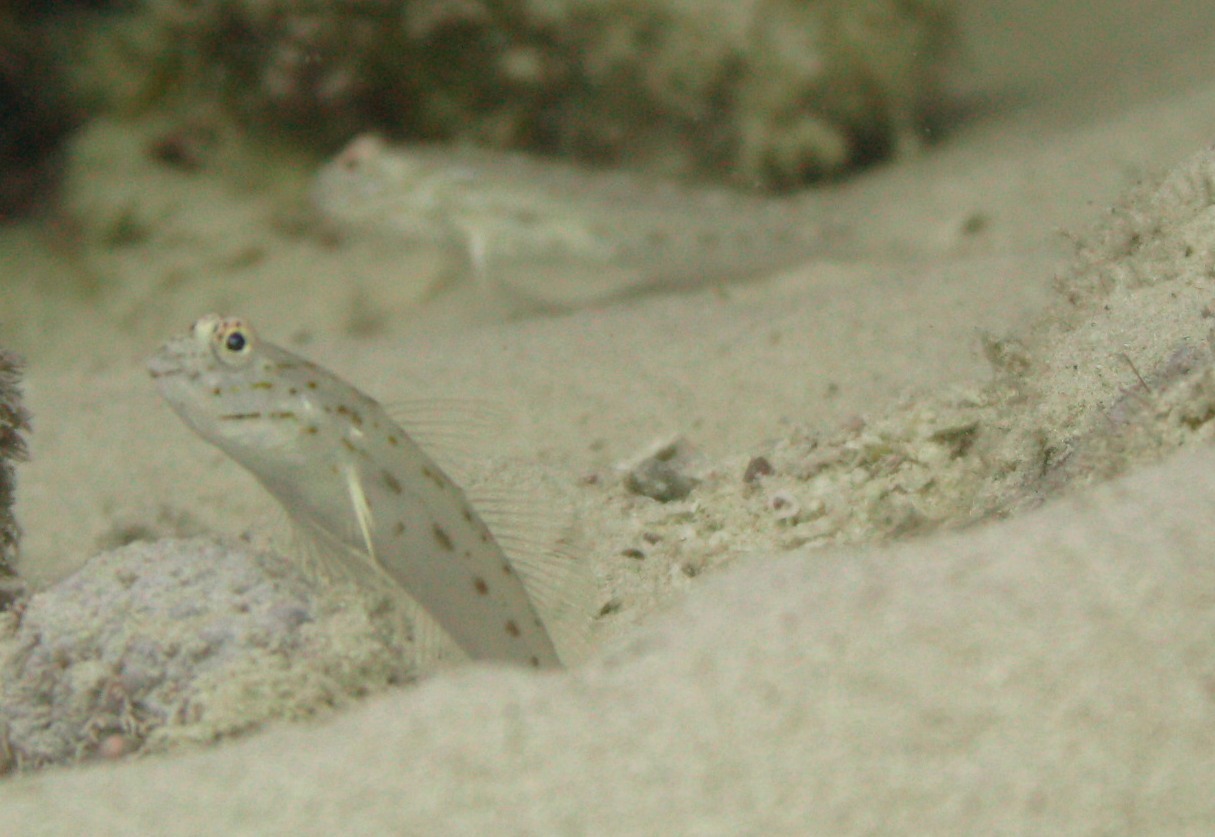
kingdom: Animalia
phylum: Chordata
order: Perciformes
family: Gobiidae
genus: Ctenogobiops
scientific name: Ctenogobiops crocineus
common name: Silverspot shrimpgoby
